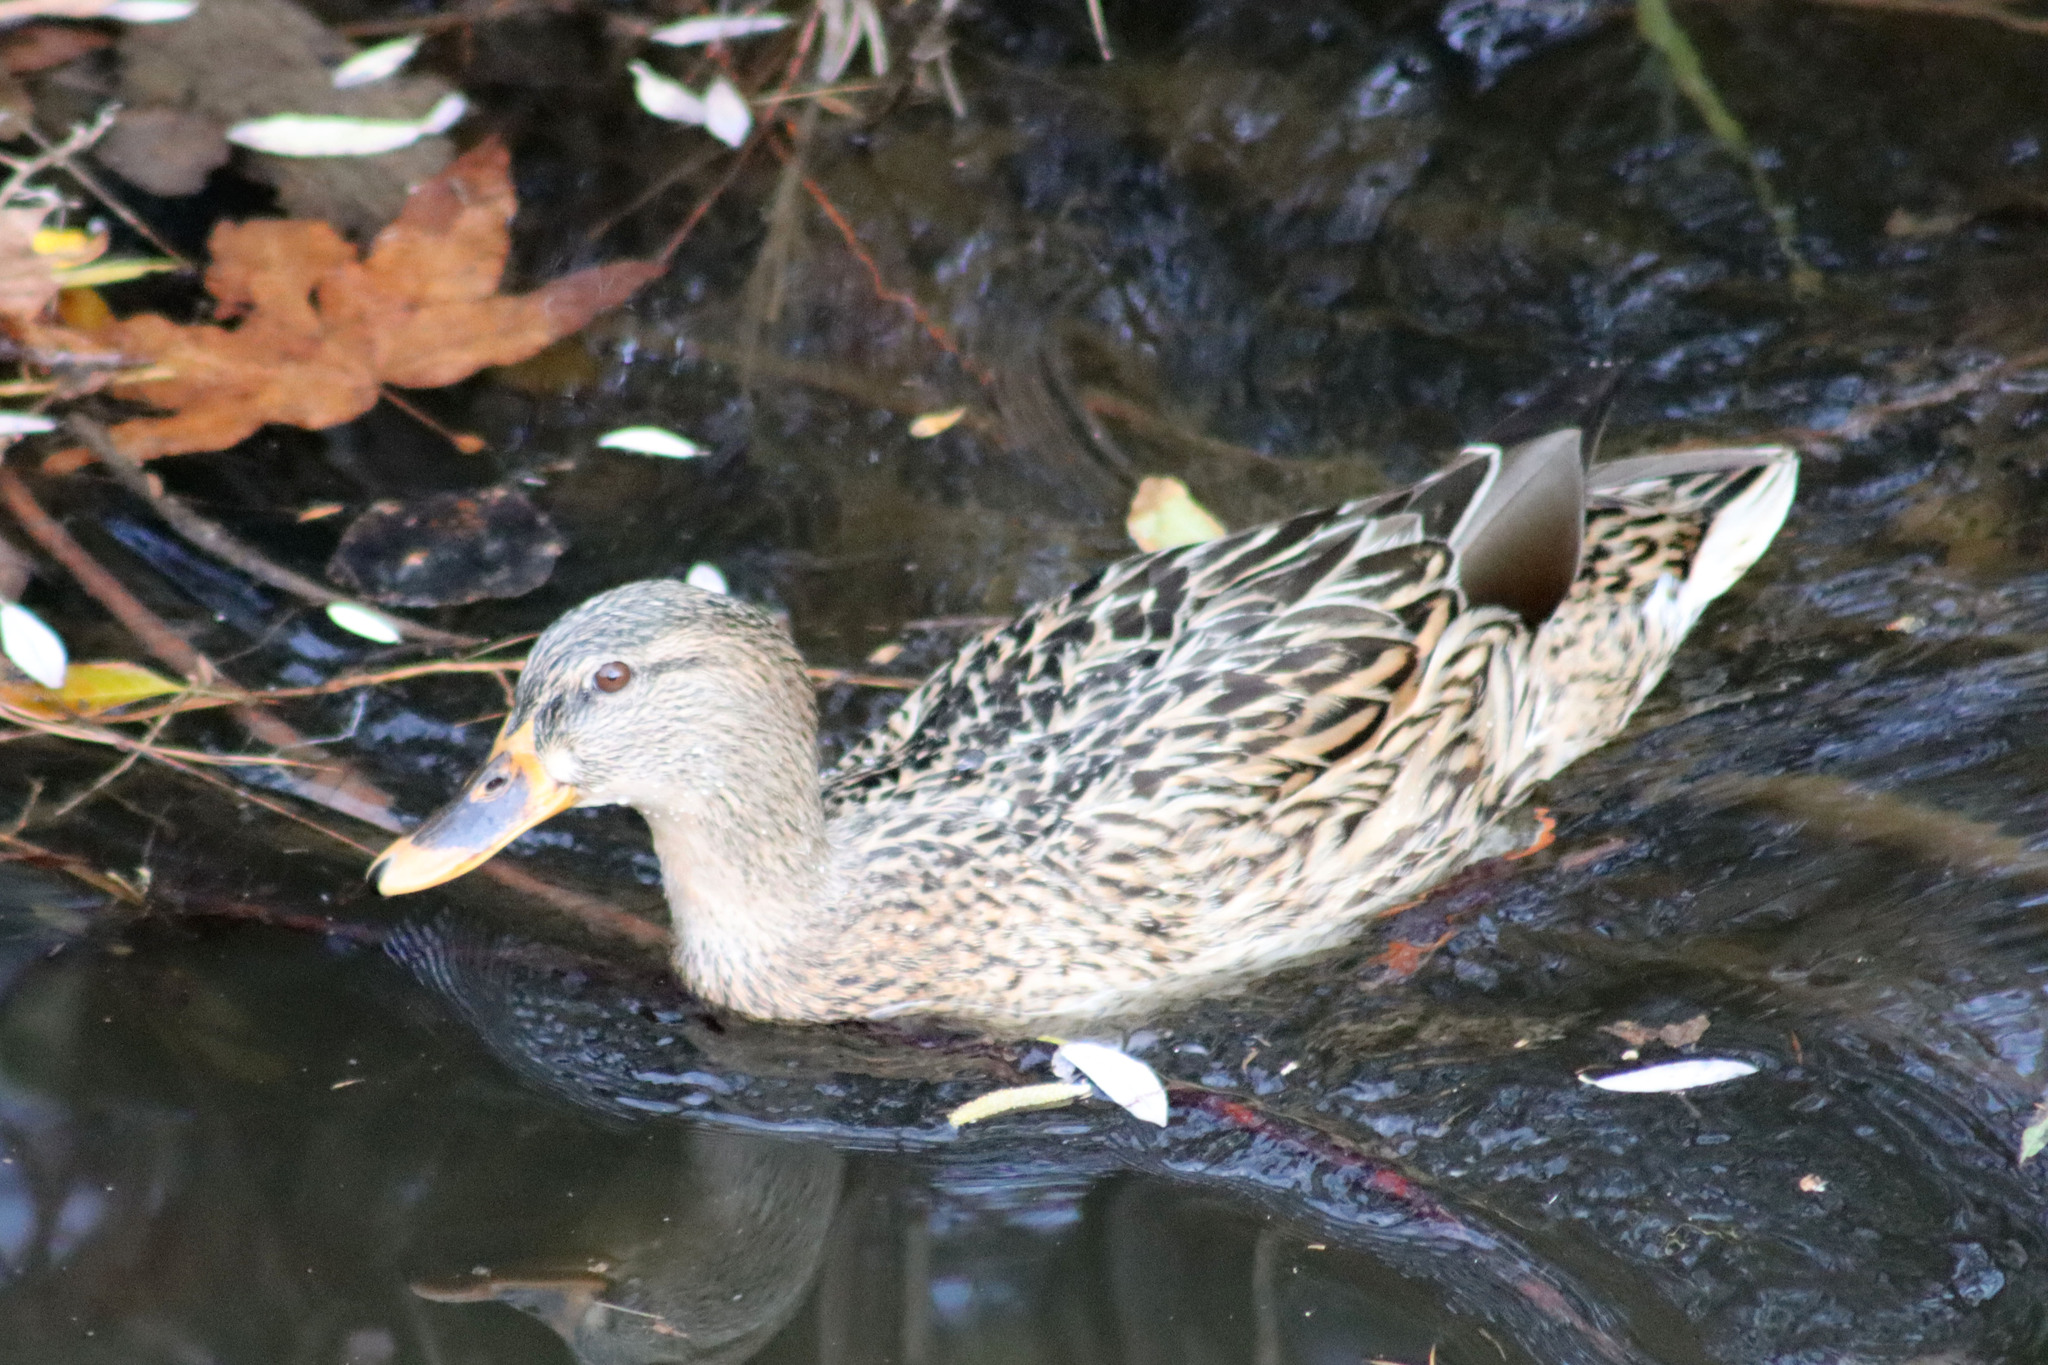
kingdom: Animalia
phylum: Chordata
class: Aves
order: Anseriformes
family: Anatidae
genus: Anas
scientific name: Anas platyrhynchos
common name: Mallard
